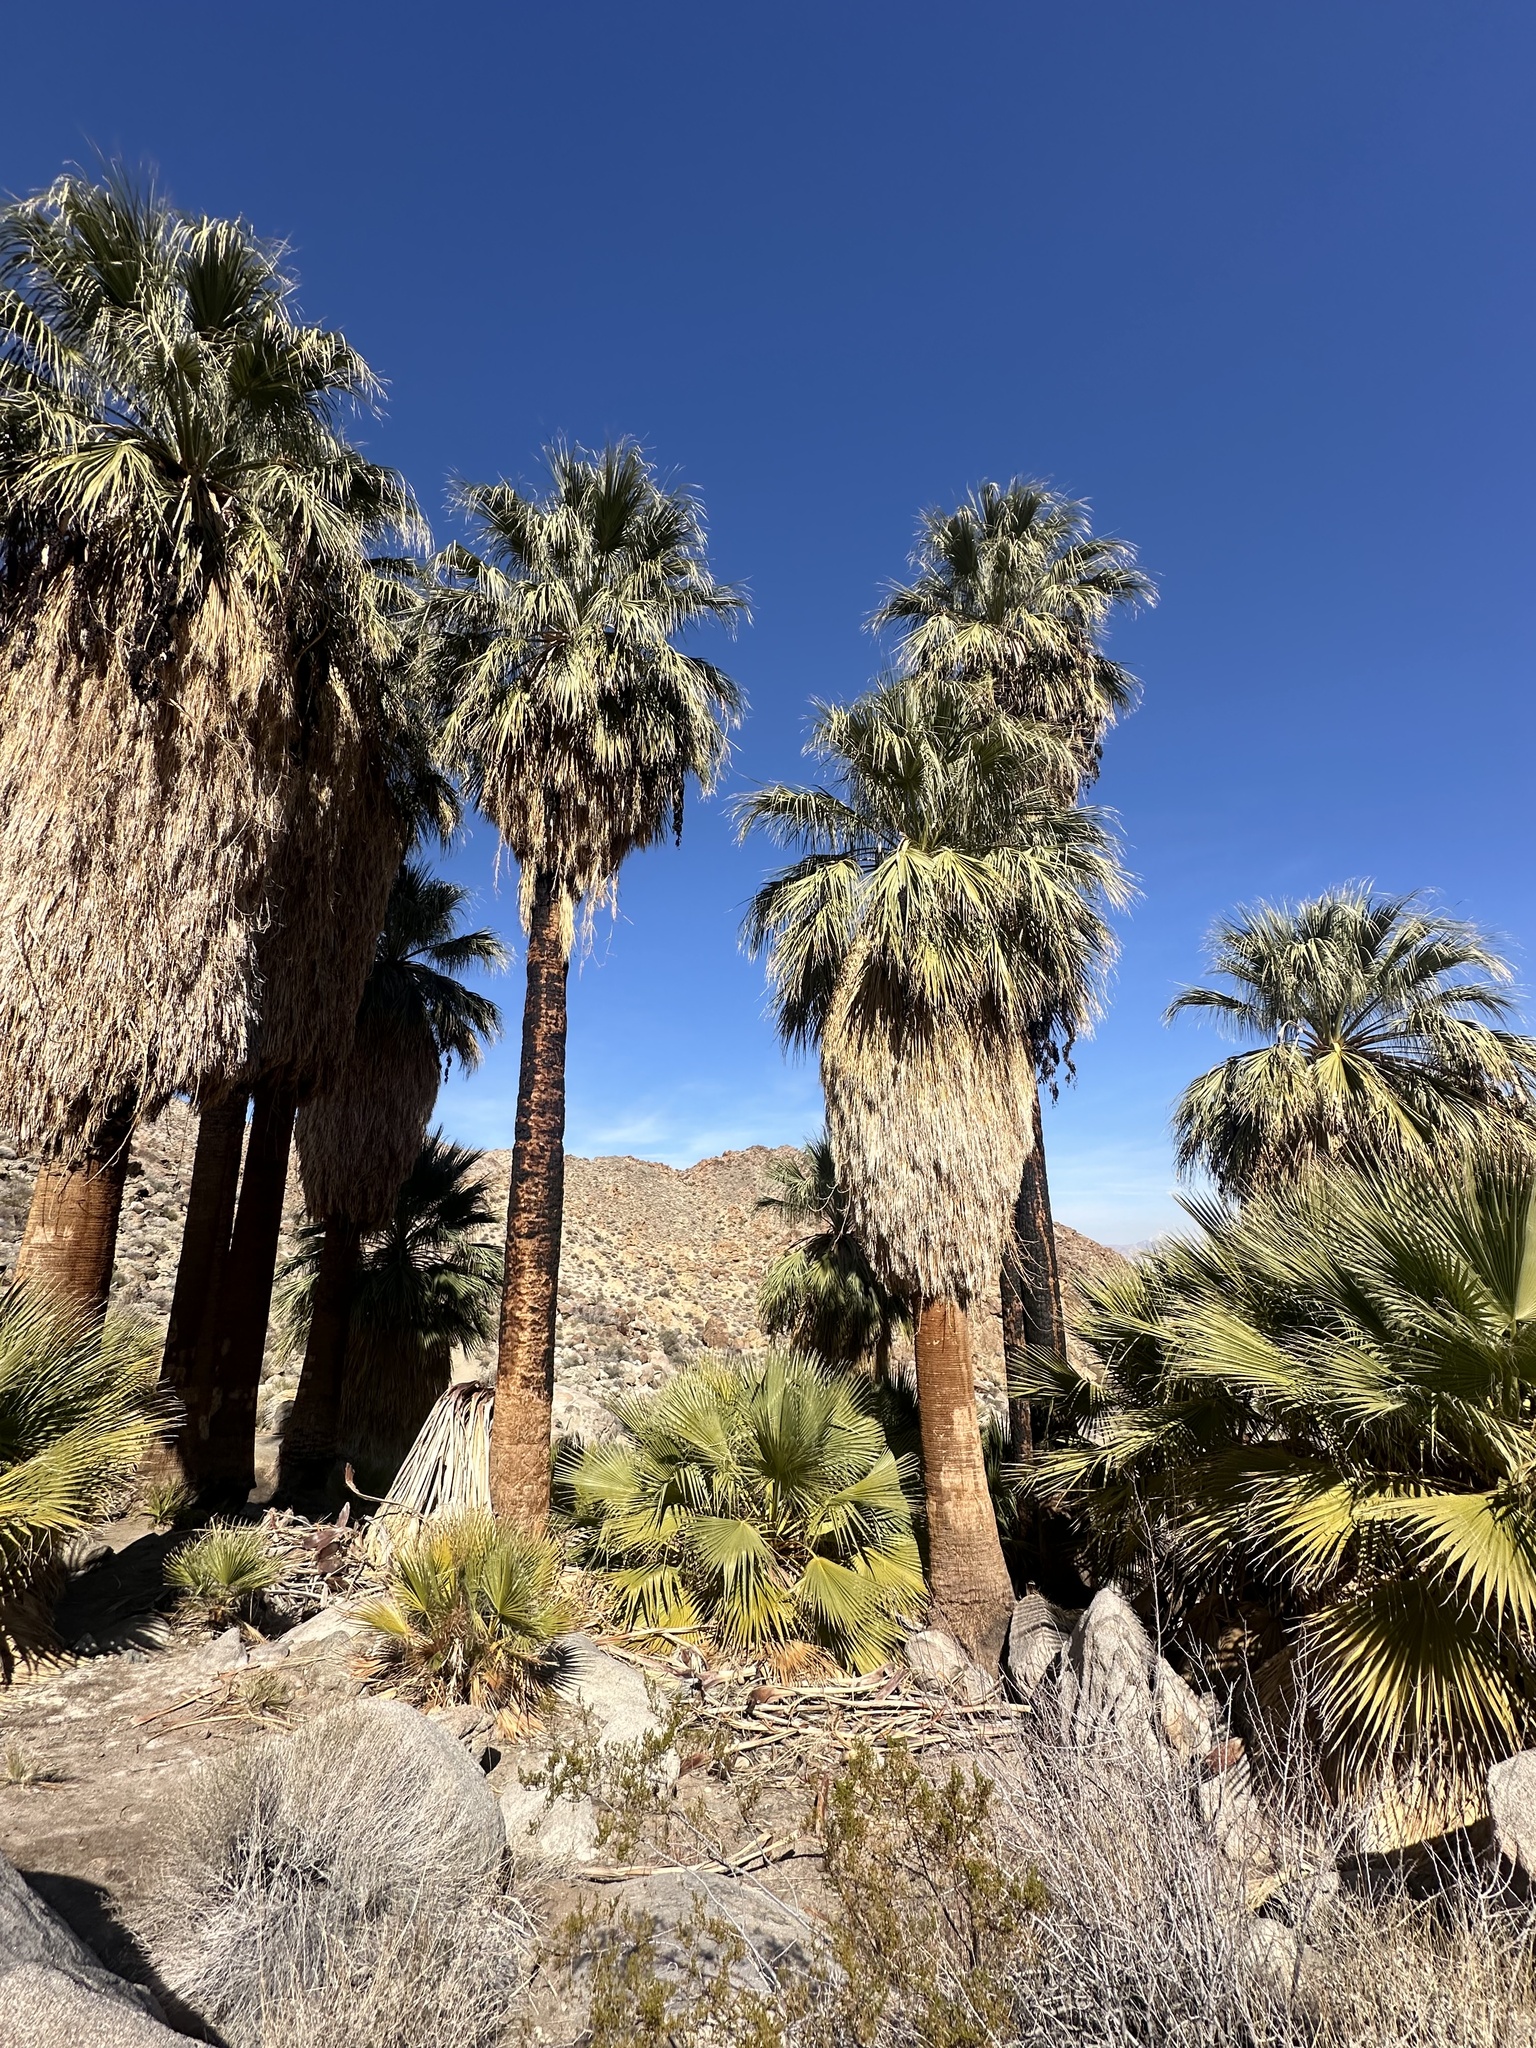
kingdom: Plantae
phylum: Tracheophyta
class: Liliopsida
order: Arecales
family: Arecaceae
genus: Washingtonia
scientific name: Washingtonia filifera
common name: California fan palm
